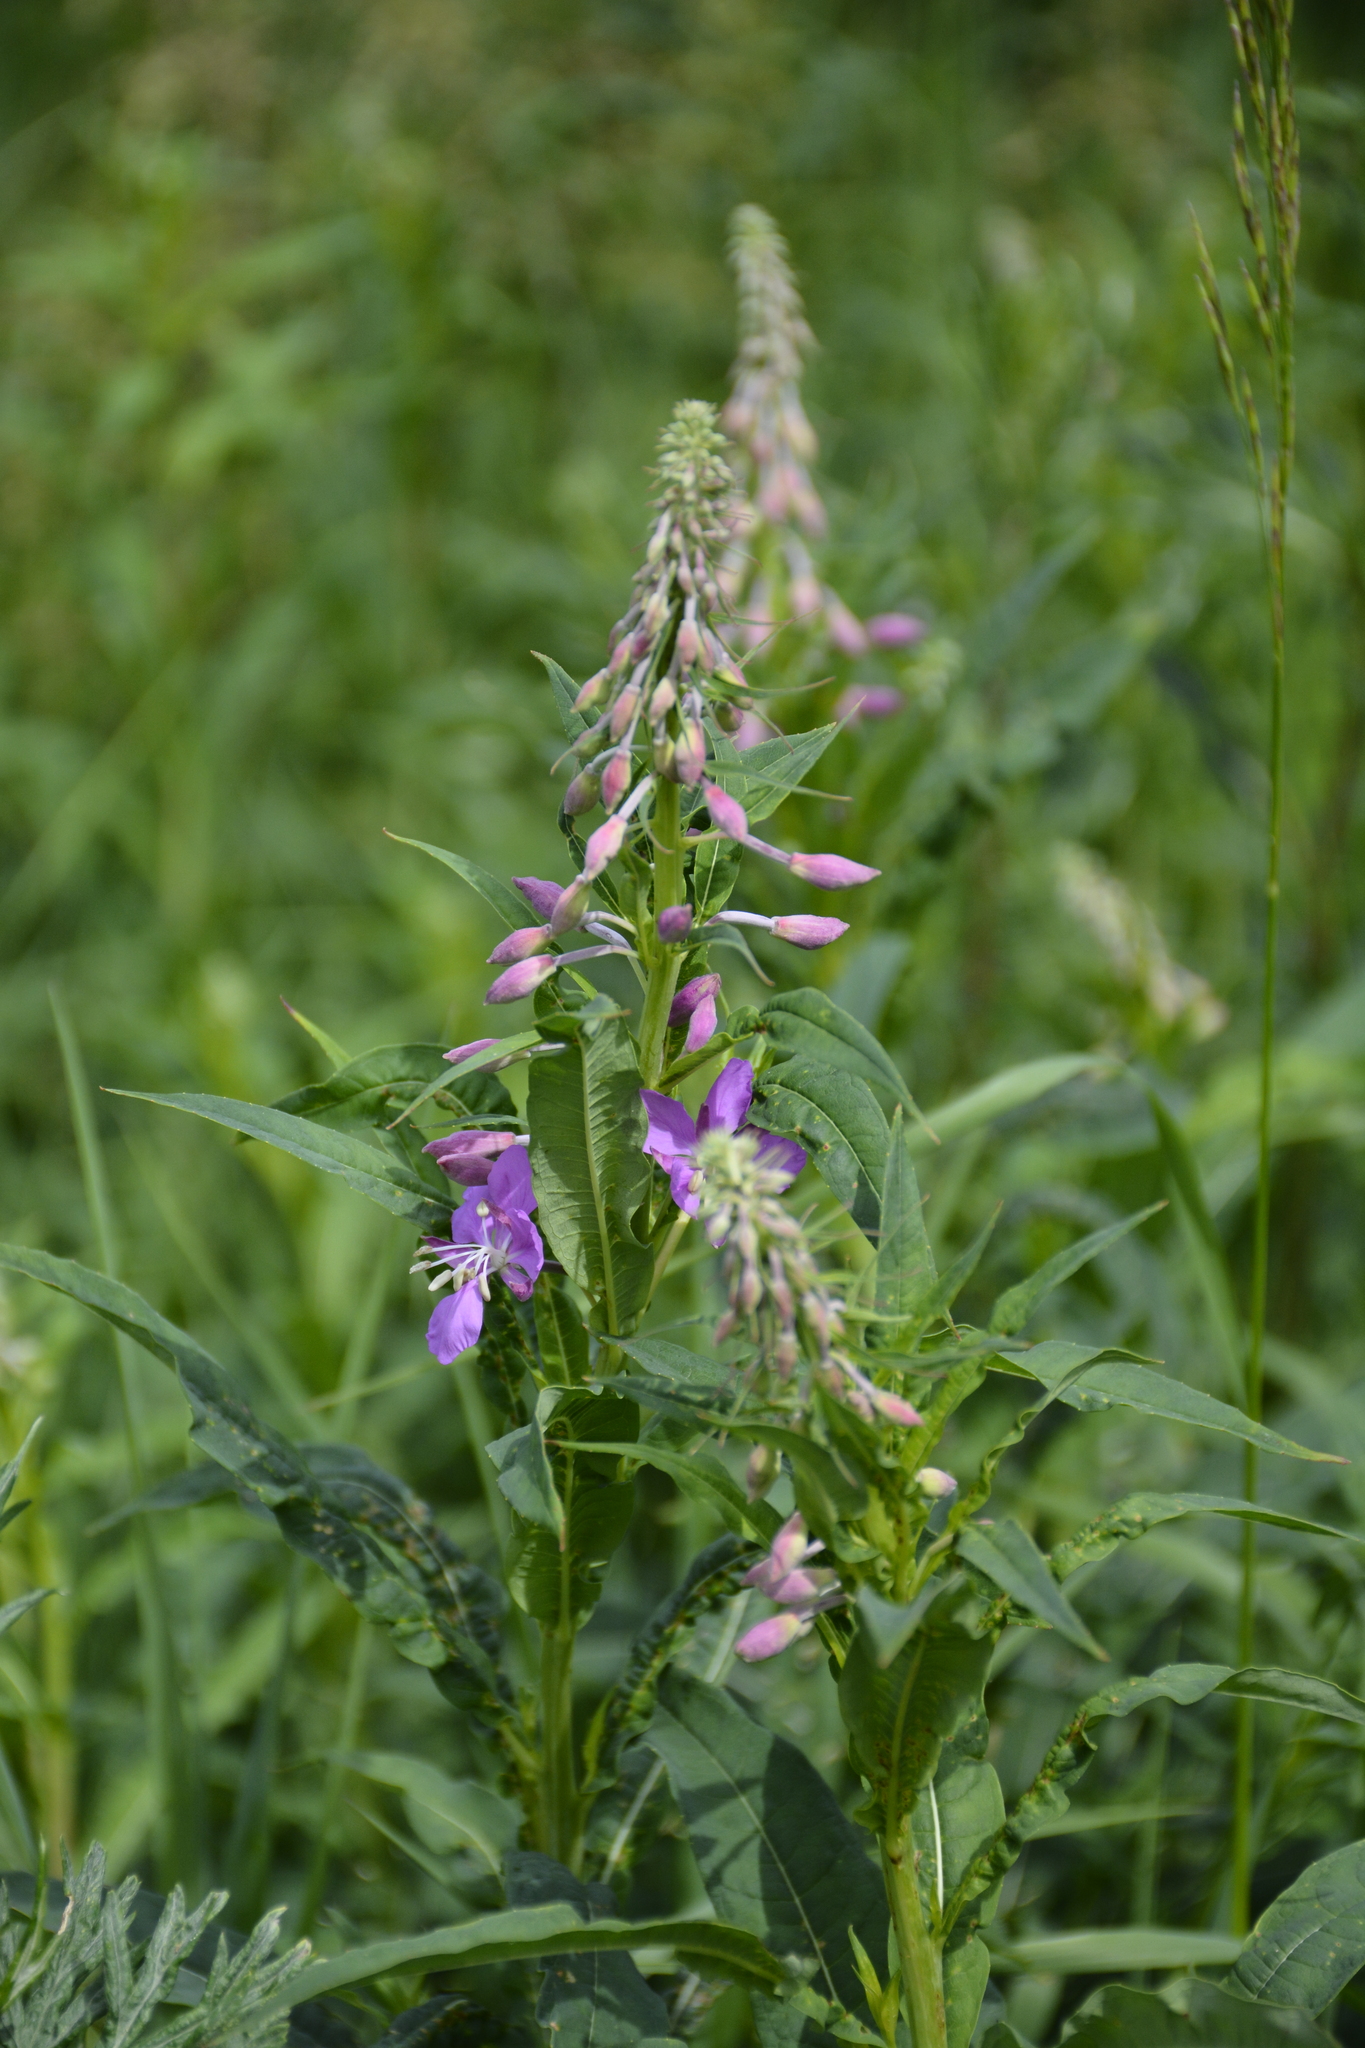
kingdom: Plantae
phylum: Tracheophyta
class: Magnoliopsida
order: Myrtales
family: Onagraceae
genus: Chamaenerion
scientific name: Chamaenerion angustifolium
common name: Fireweed
